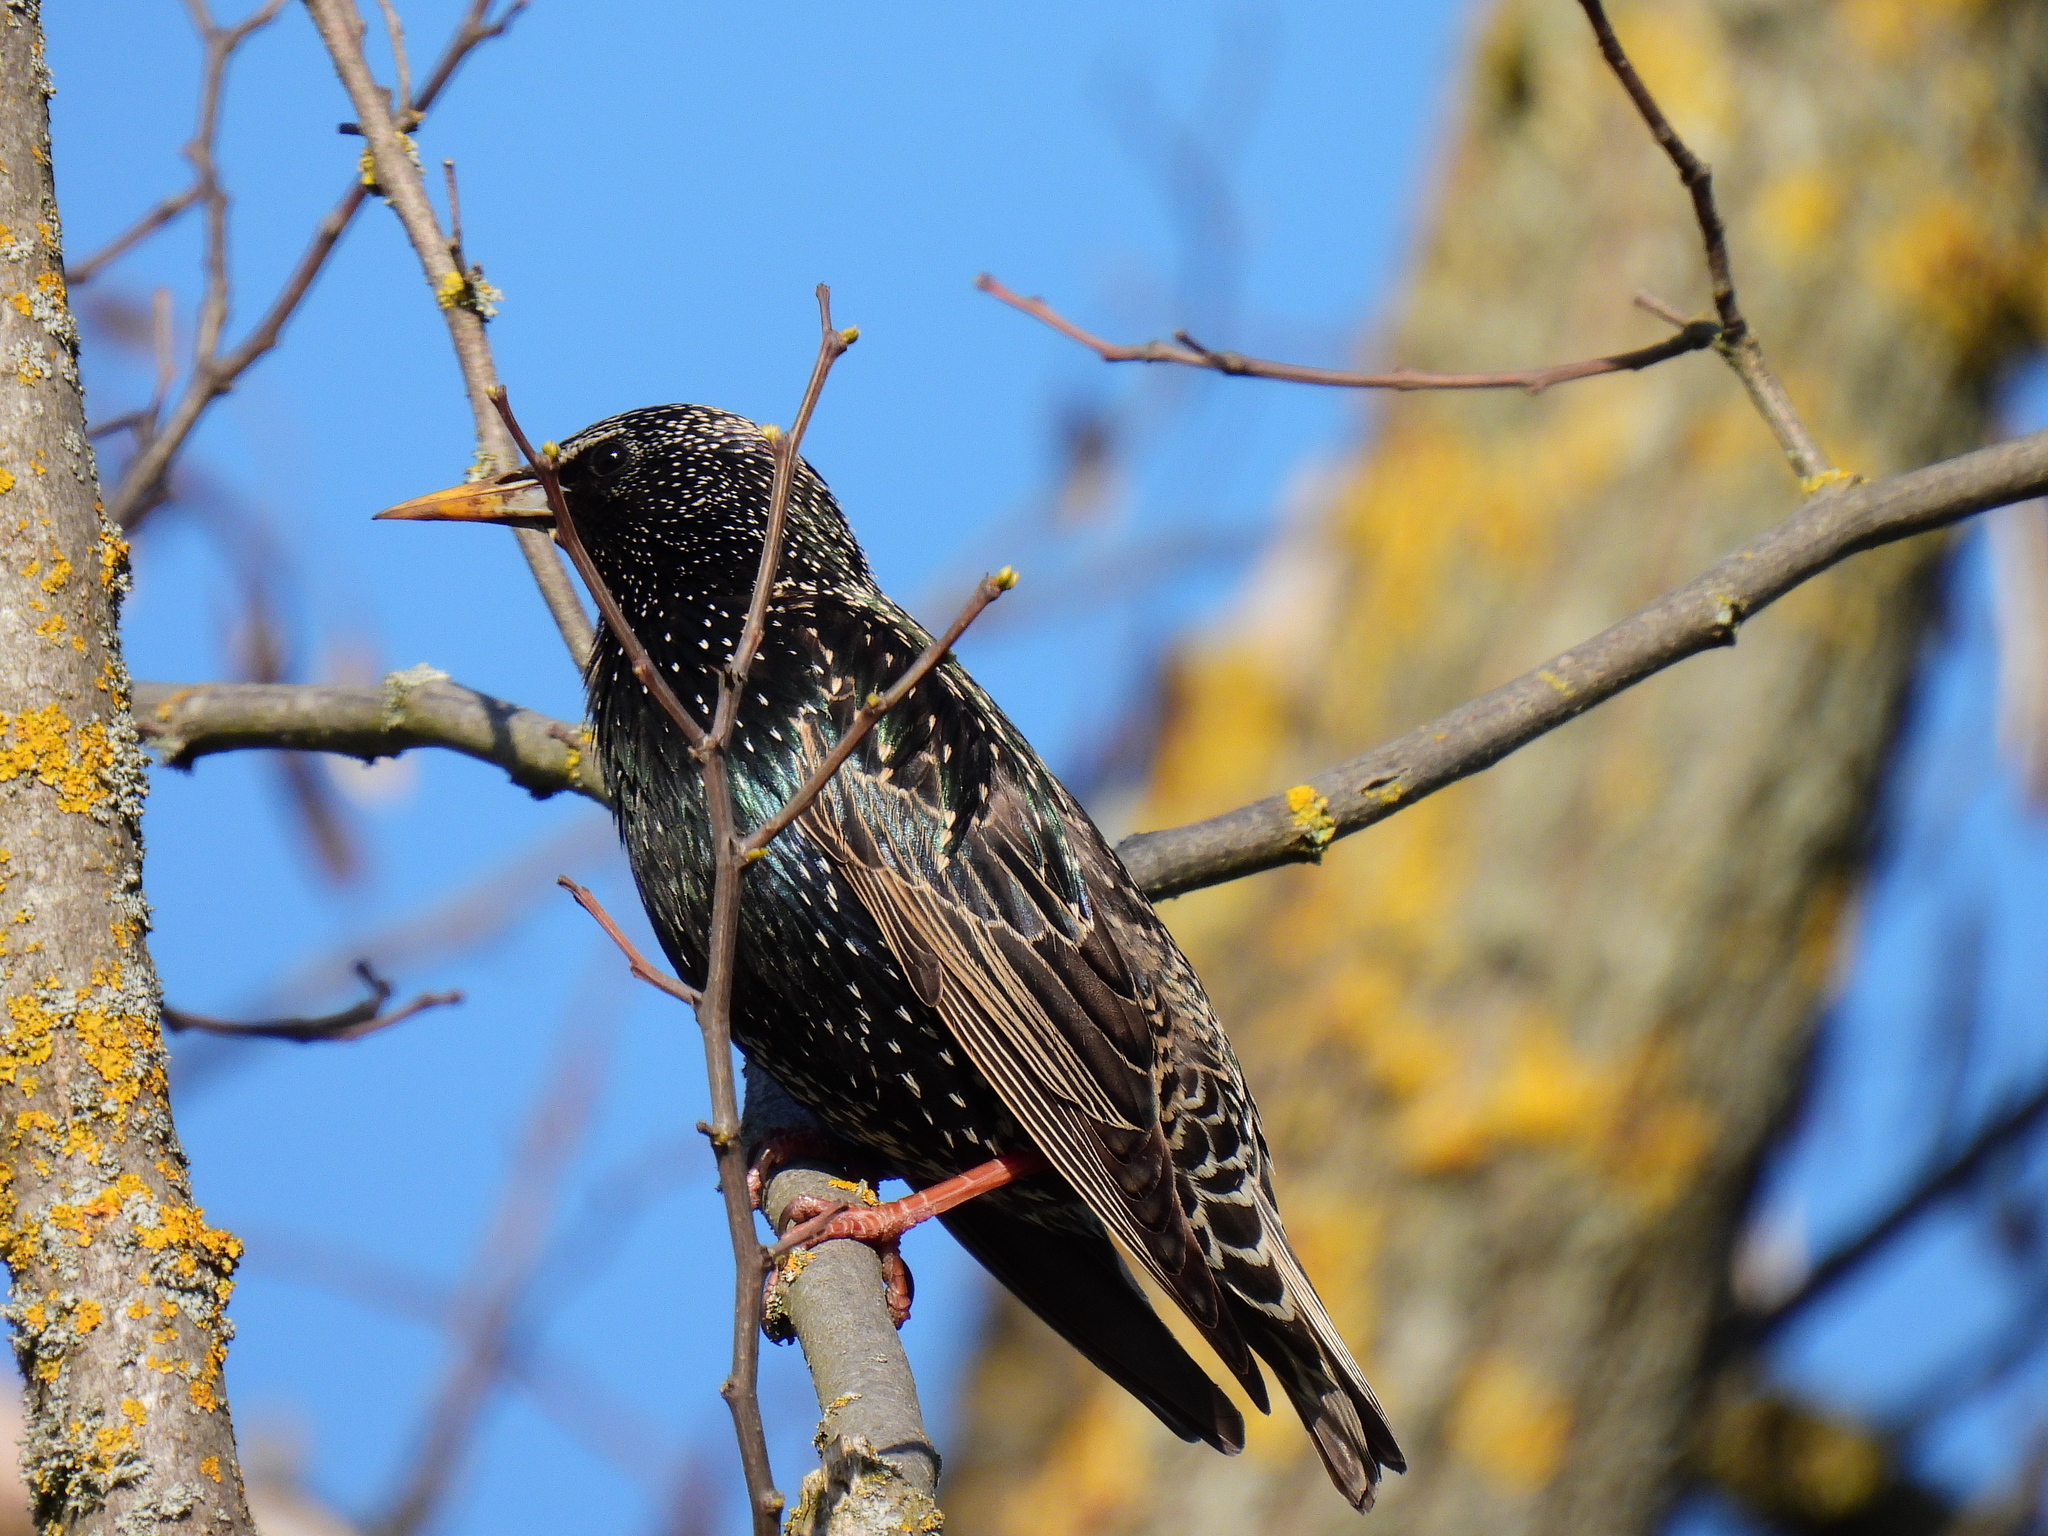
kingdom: Animalia
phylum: Chordata
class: Aves
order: Passeriformes
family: Sturnidae
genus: Sturnus
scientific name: Sturnus vulgaris
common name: Common starling
